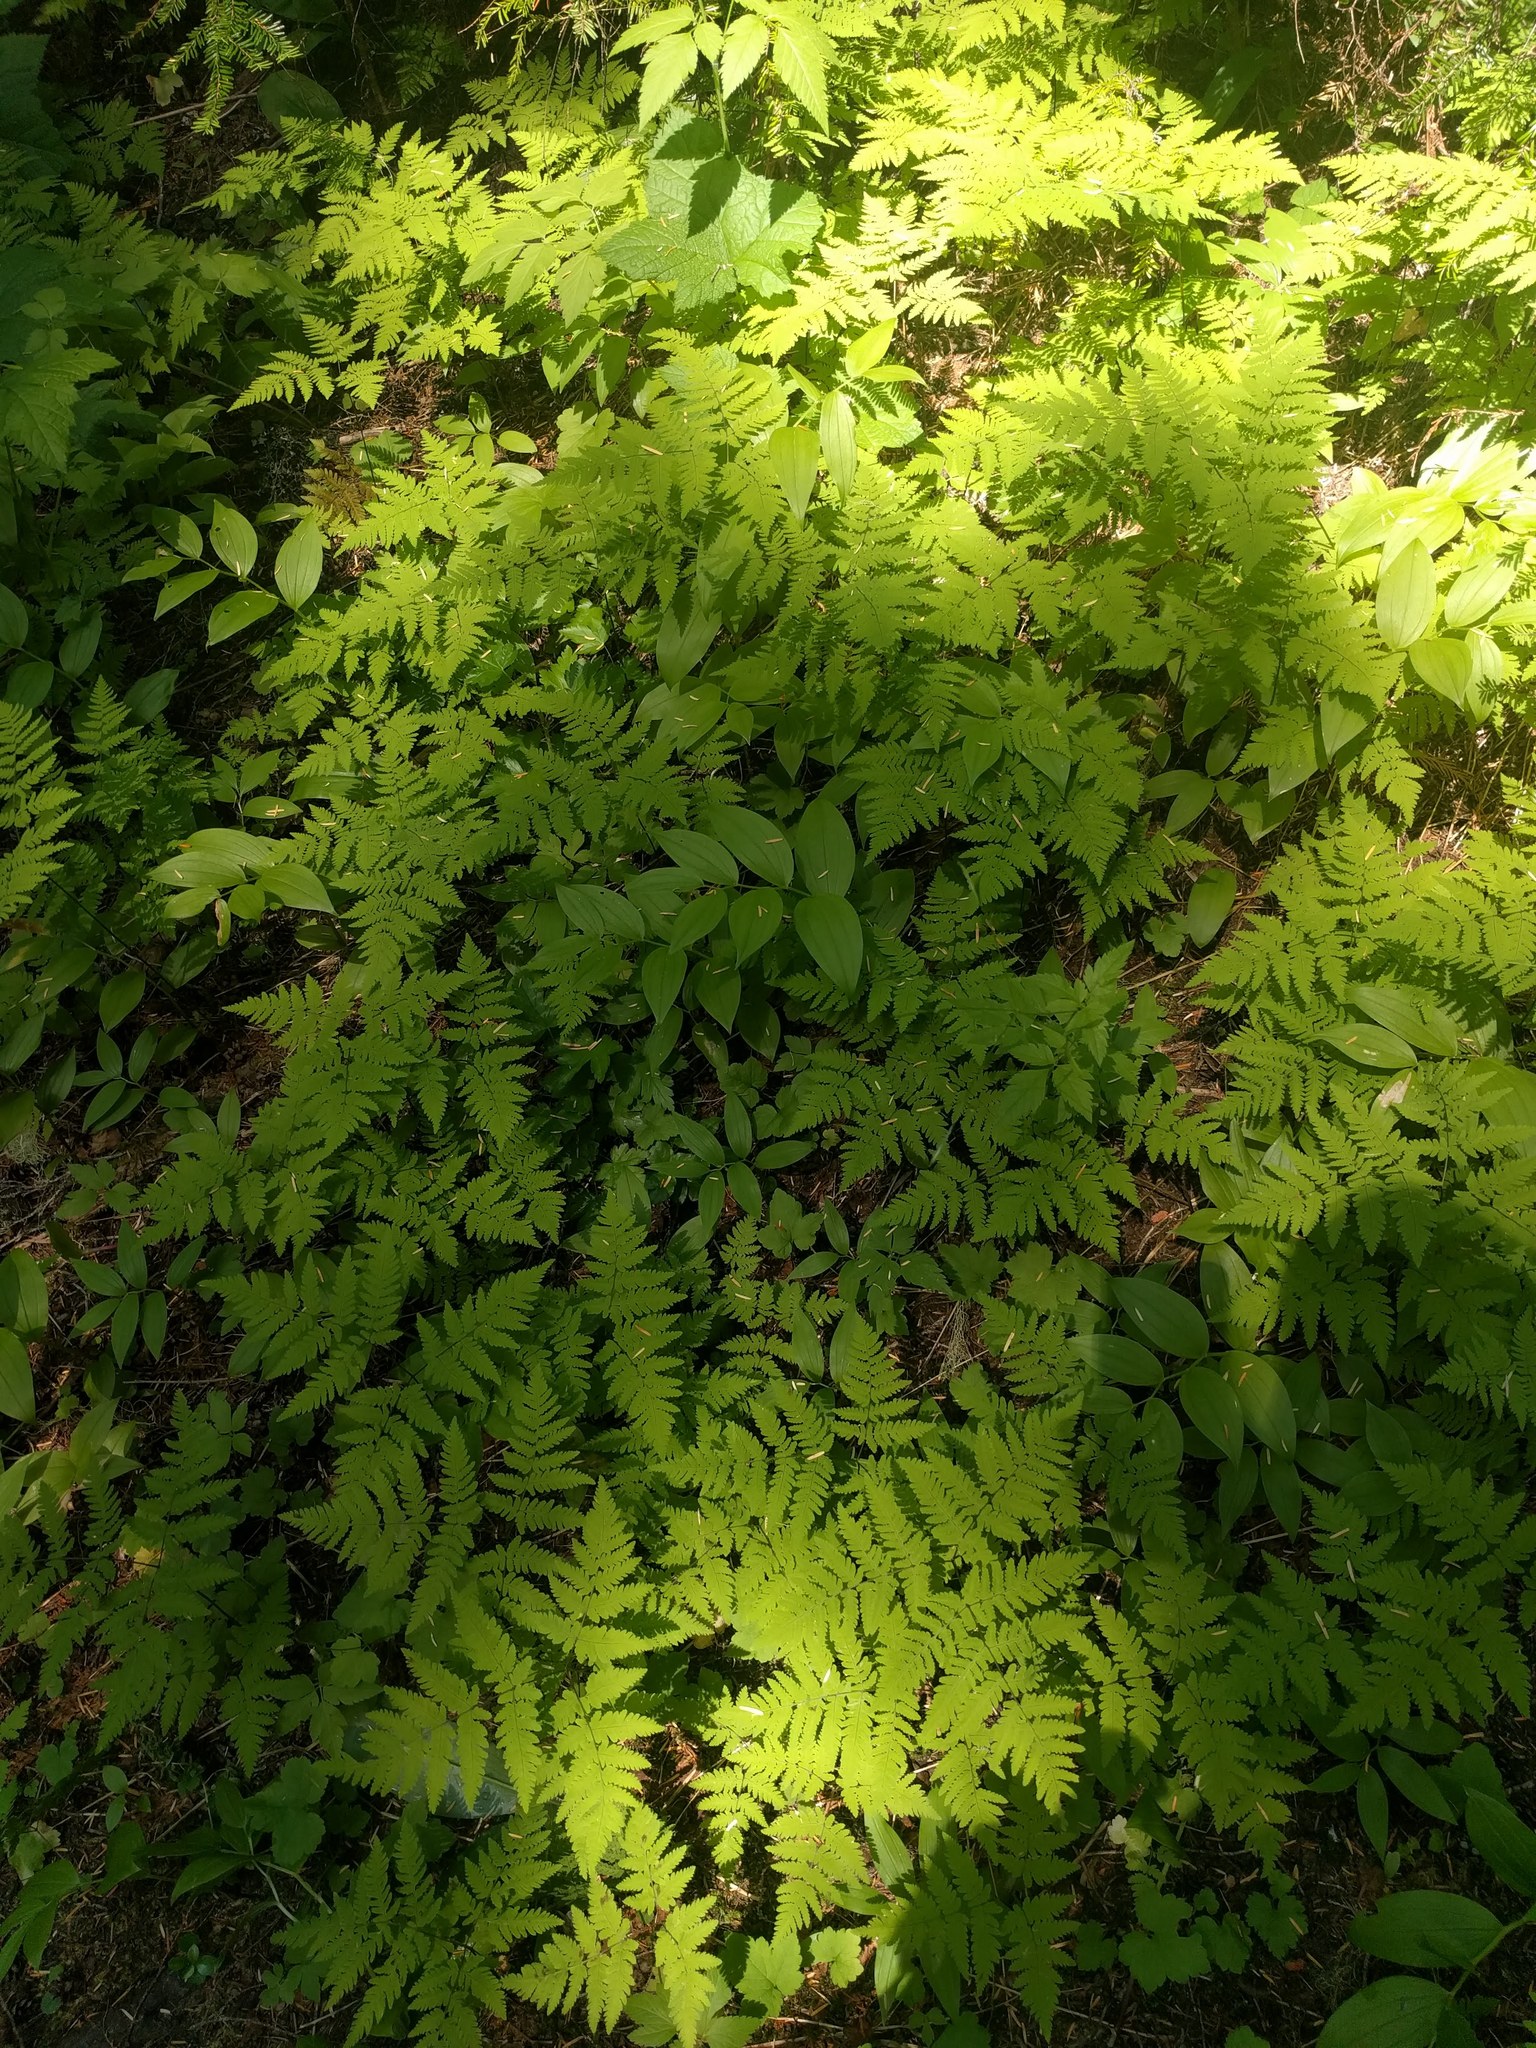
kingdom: Plantae
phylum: Tracheophyta
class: Polypodiopsida
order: Polypodiales
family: Cystopteridaceae
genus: Gymnocarpium
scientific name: Gymnocarpium disjunctum
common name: Western oak fern
